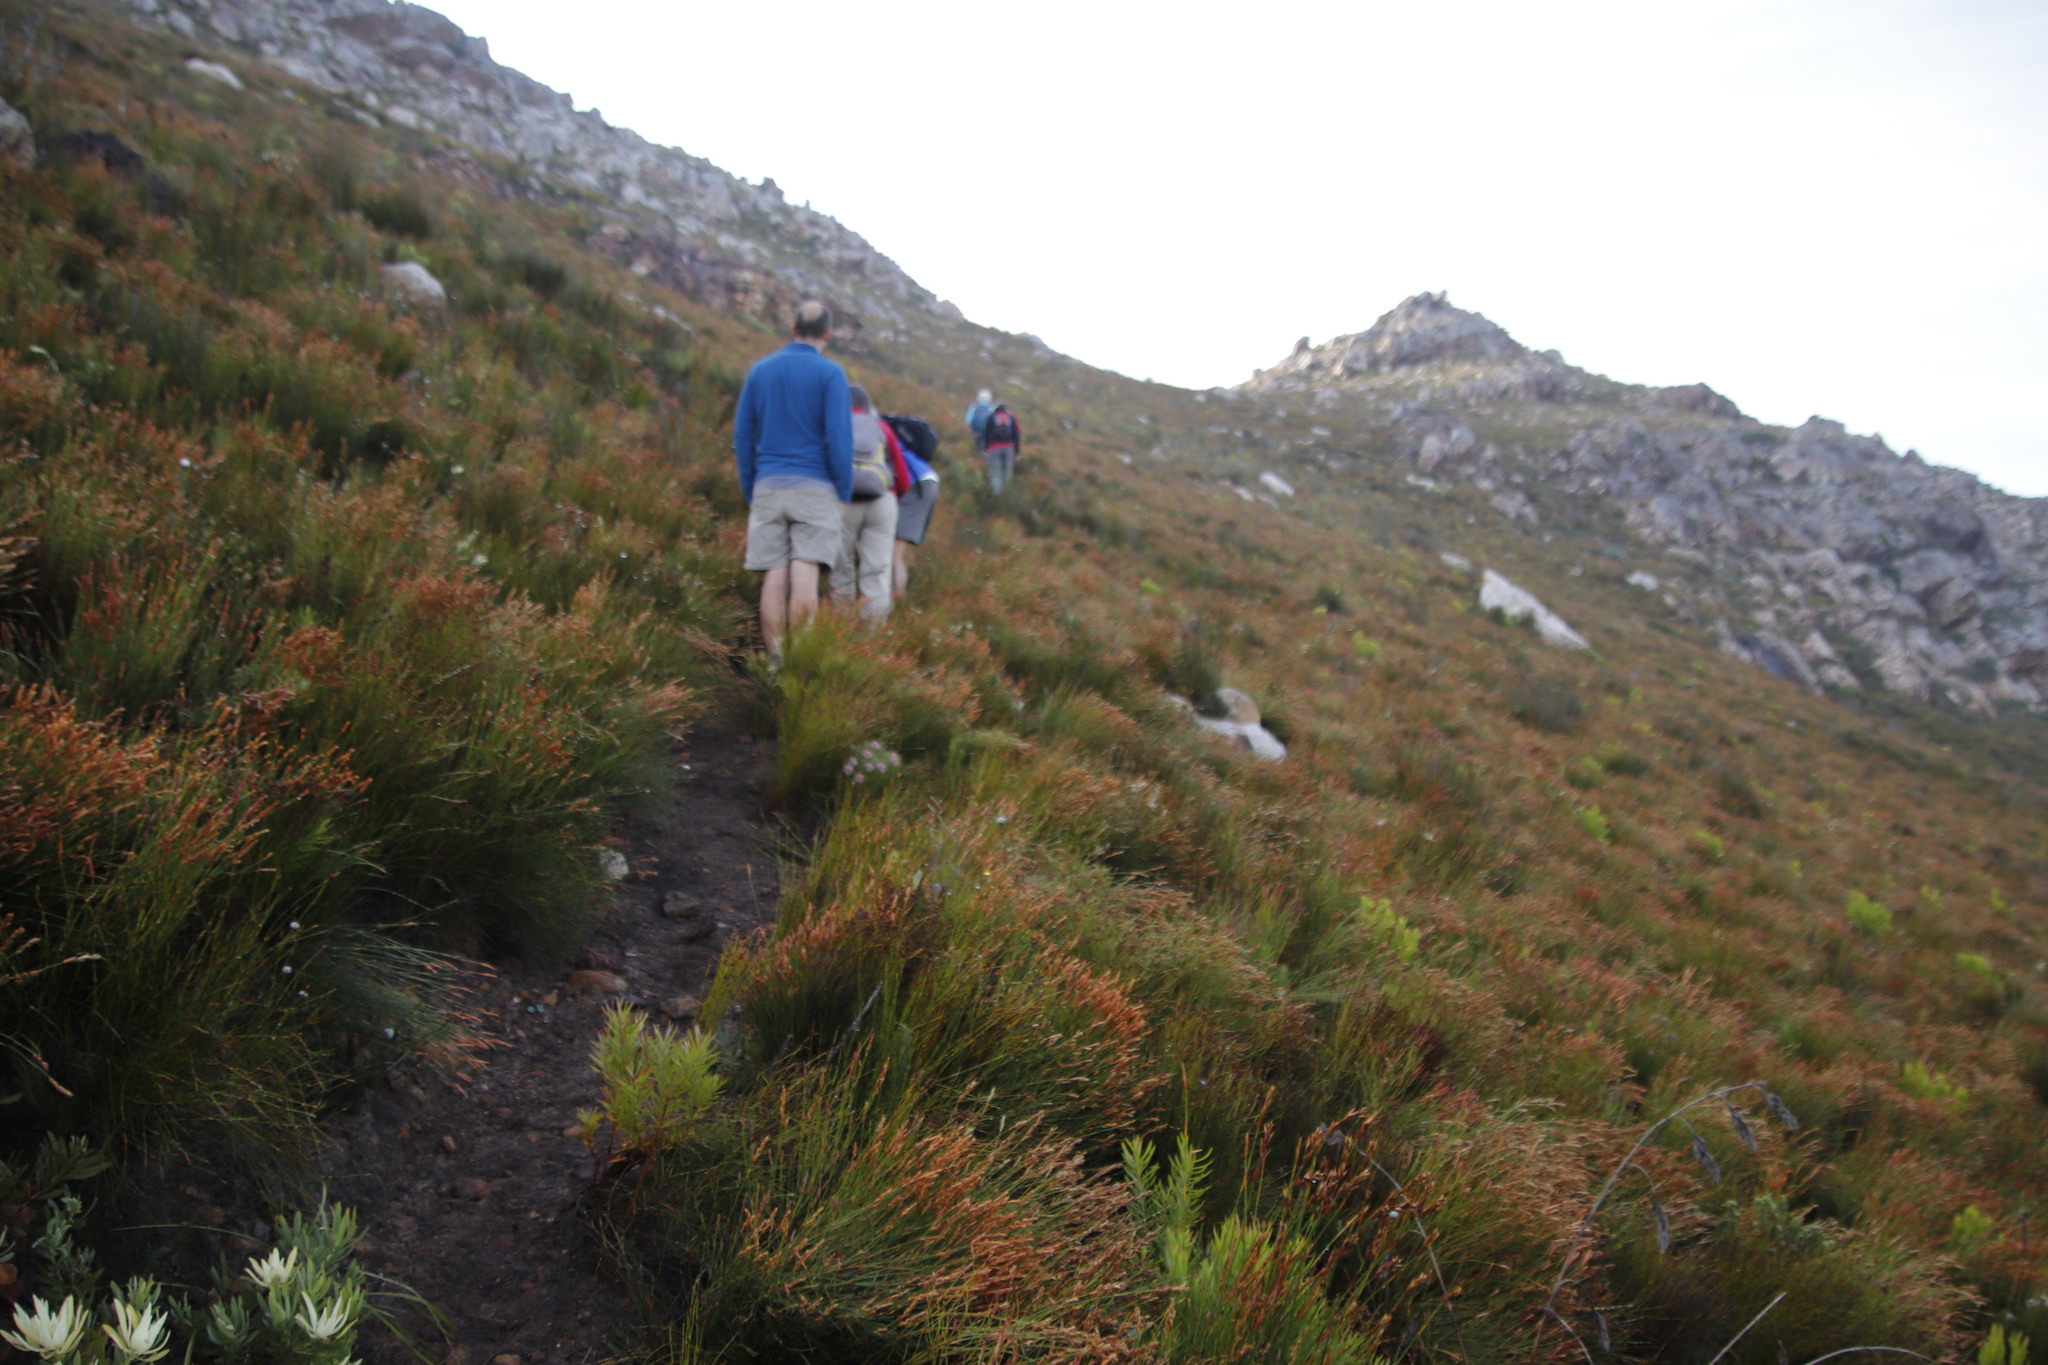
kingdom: Plantae
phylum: Tracheophyta
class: Liliopsida
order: Poales
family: Restionaceae
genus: Elegia
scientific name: Elegia stipularis
